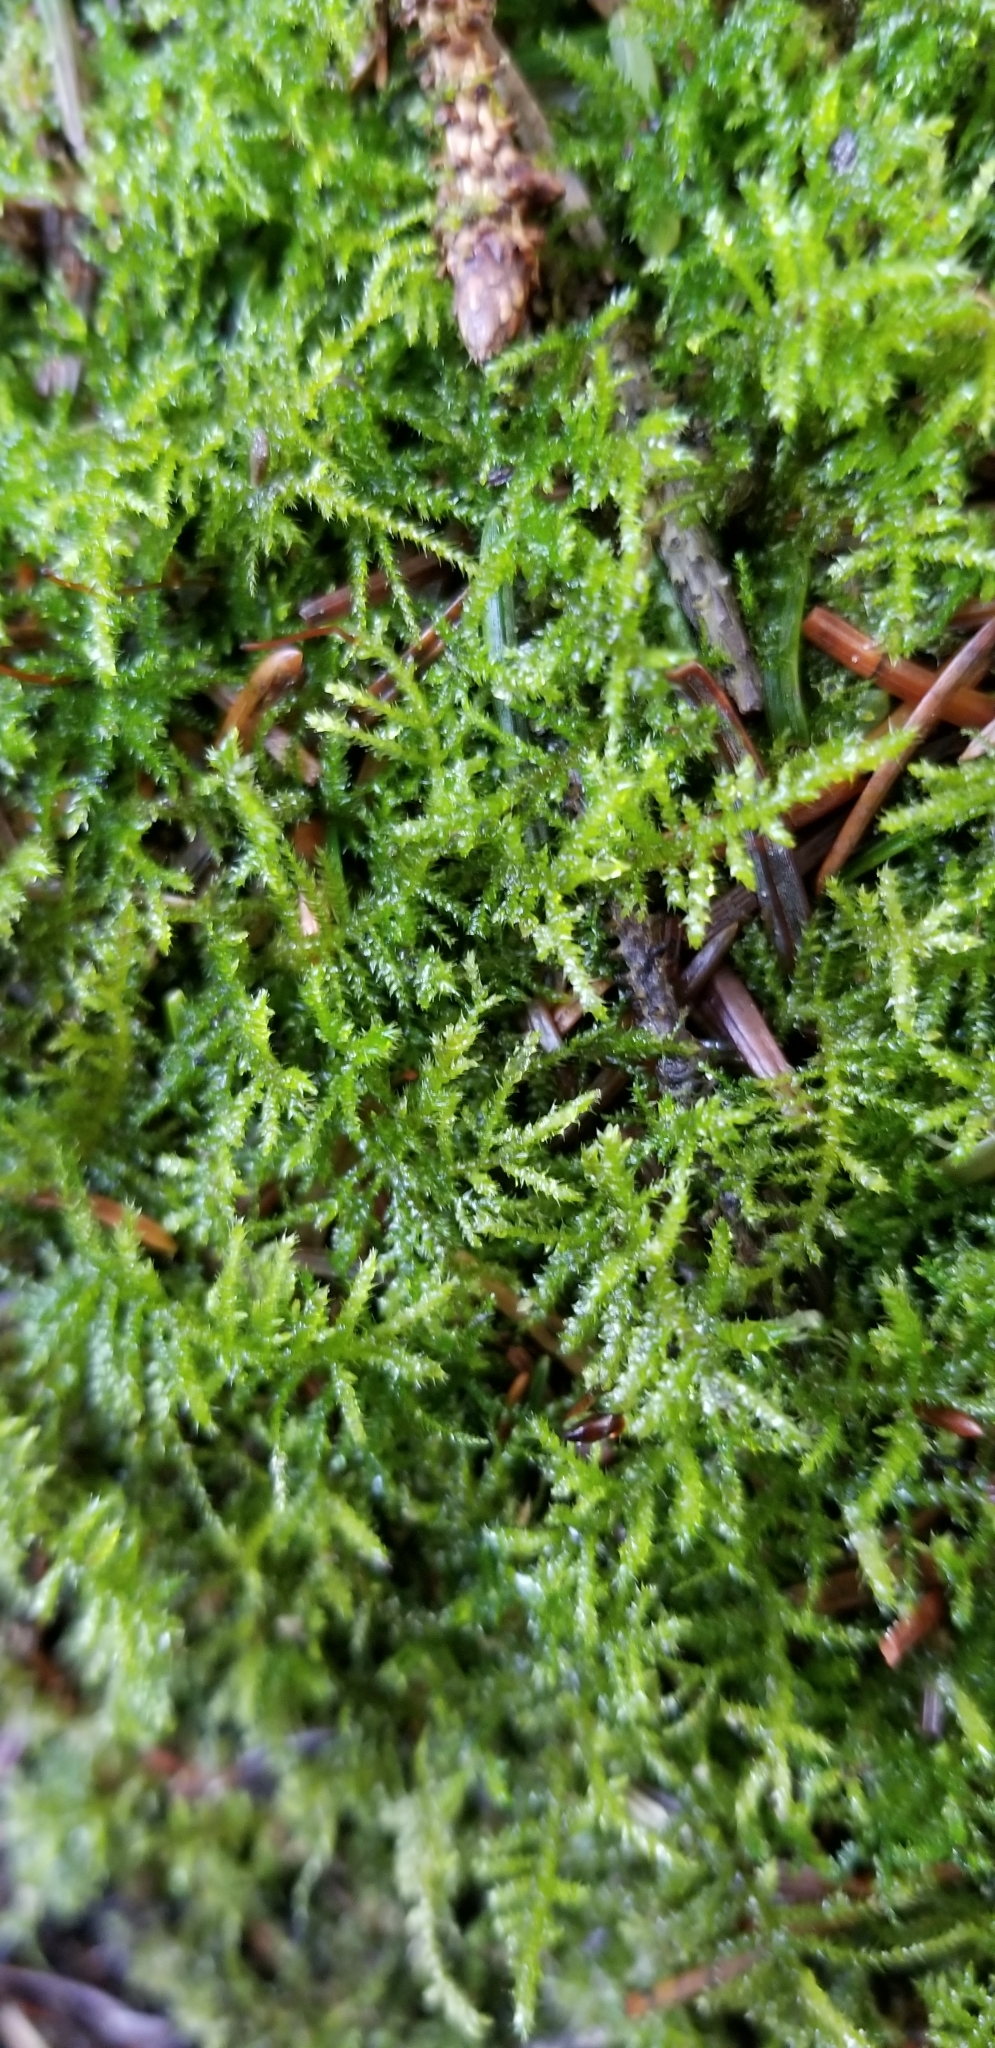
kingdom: Plantae
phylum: Bryophyta
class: Bryopsida
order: Hypnales
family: Brachytheciaceae
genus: Kindbergia
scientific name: Kindbergia oregana
